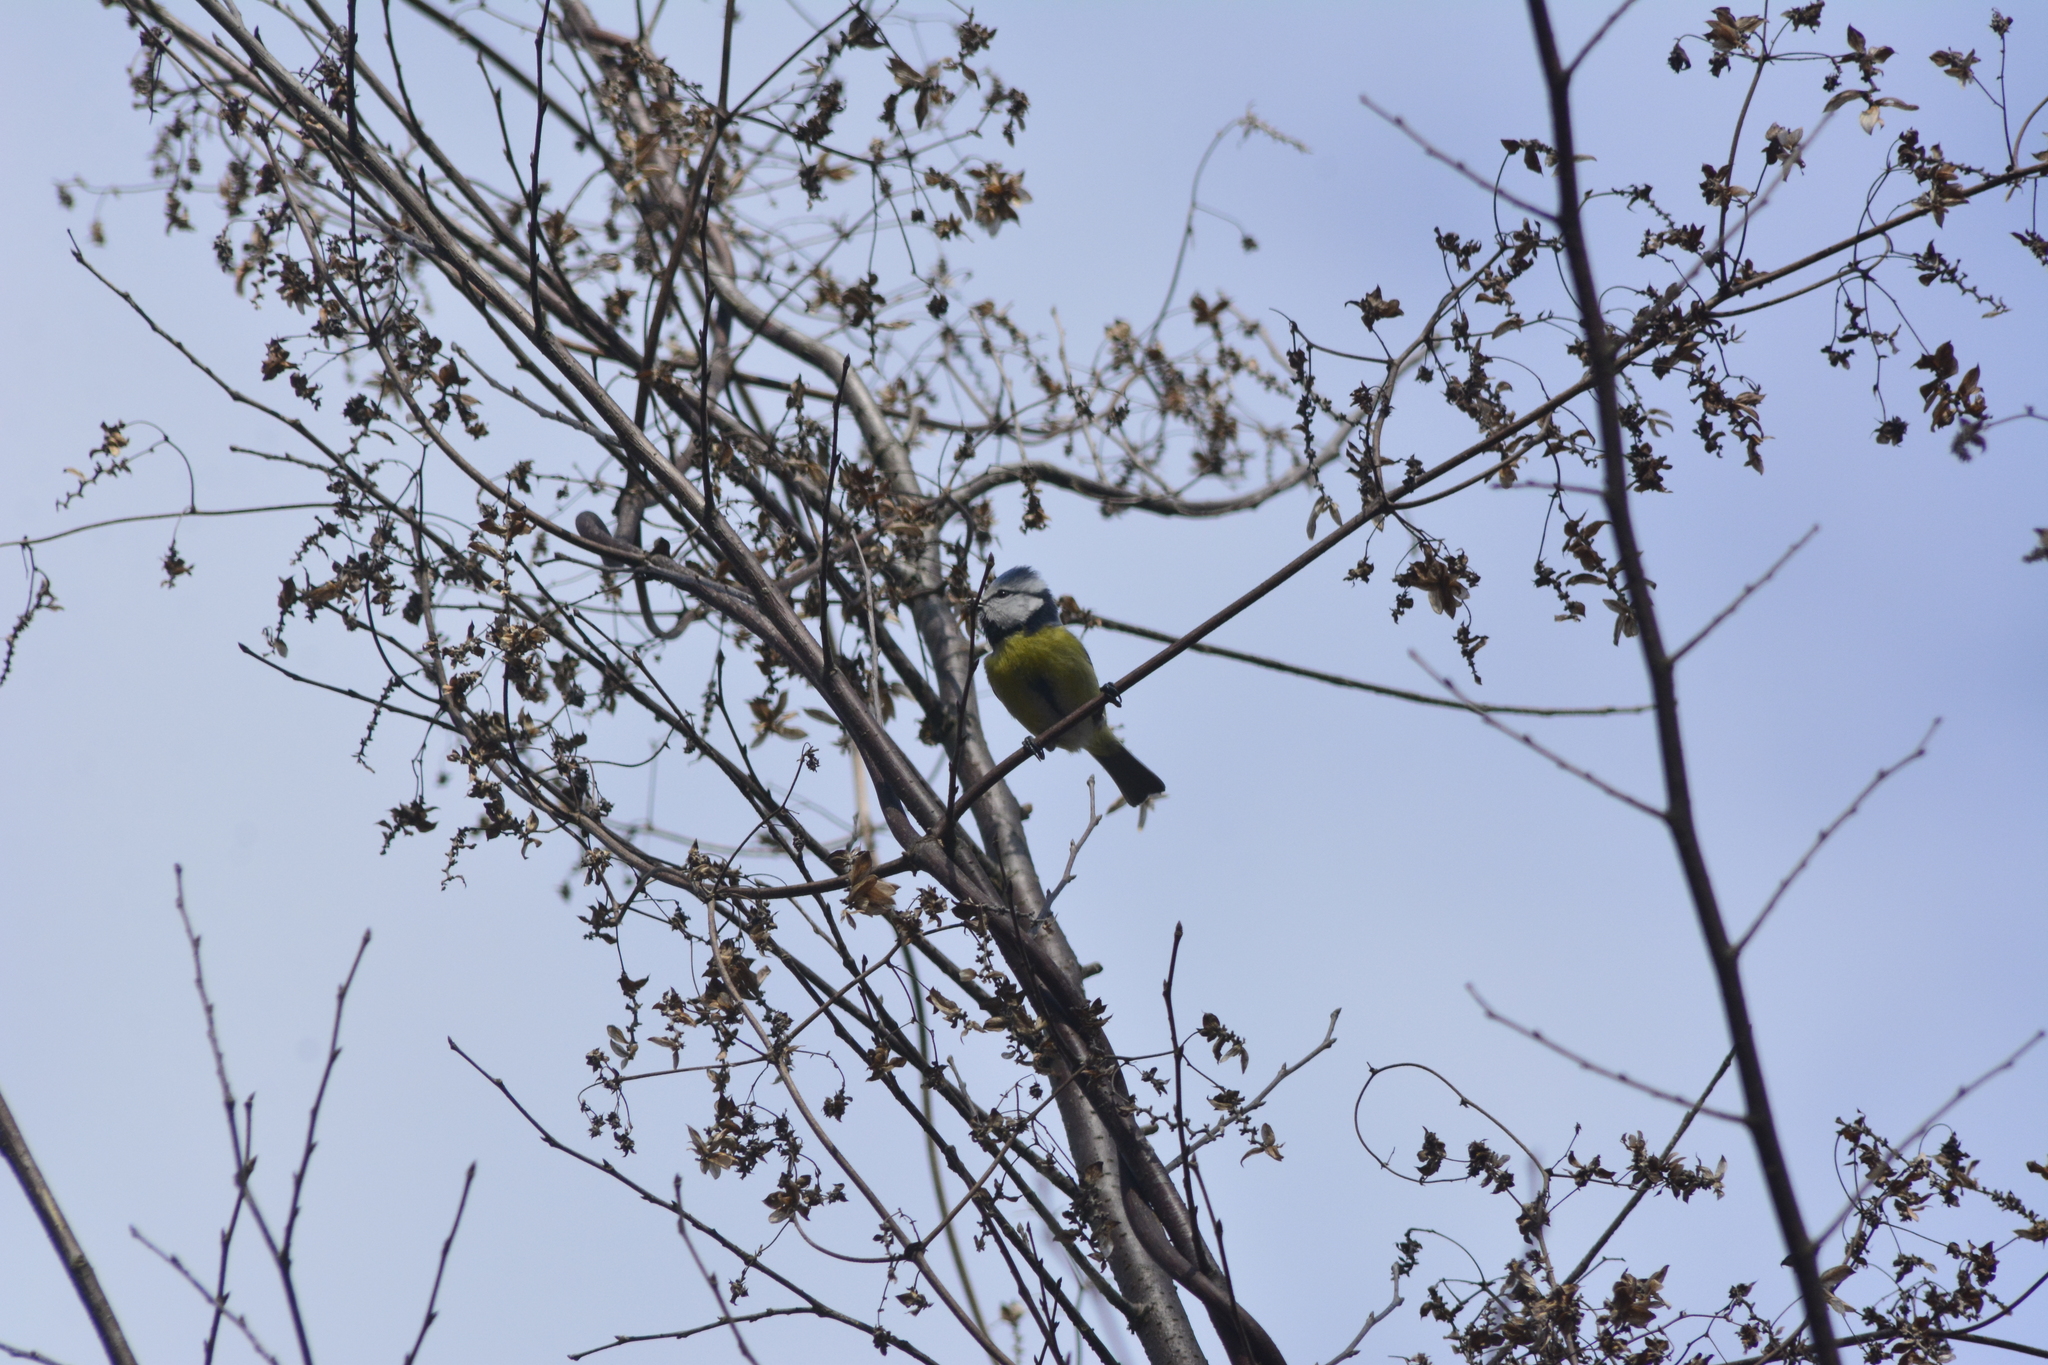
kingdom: Animalia
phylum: Chordata
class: Aves
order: Passeriformes
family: Paridae
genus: Cyanistes
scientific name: Cyanistes caeruleus
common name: Eurasian blue tit
